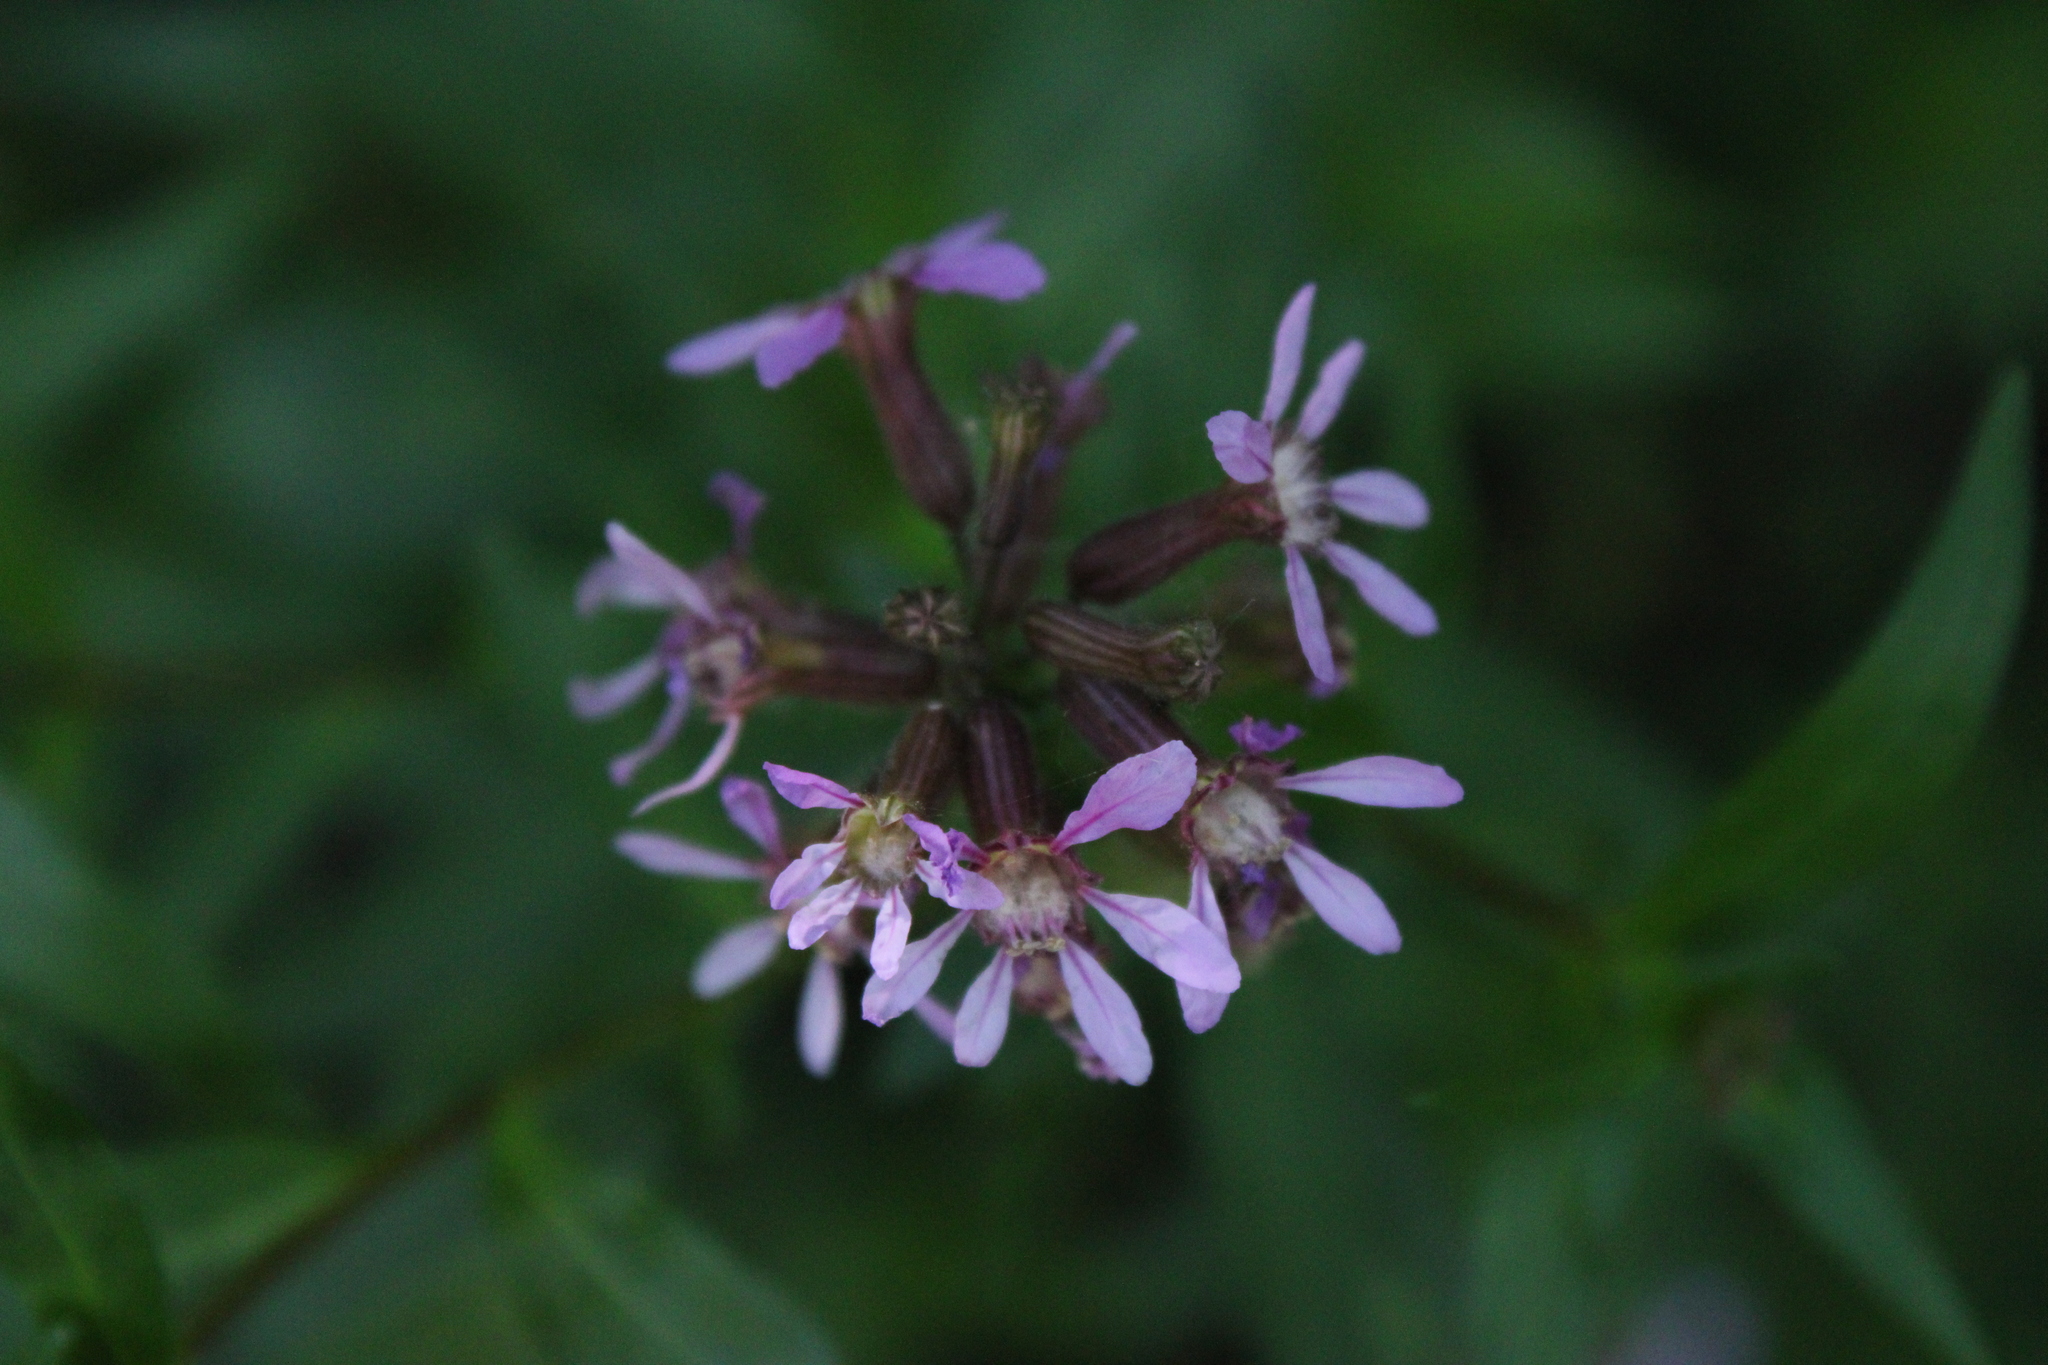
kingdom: Plantae
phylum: Tracheophyta
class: Magnoliopsida
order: Myrtales
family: Lythraceae
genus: Cuphea
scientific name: Cuphea fruticosa
